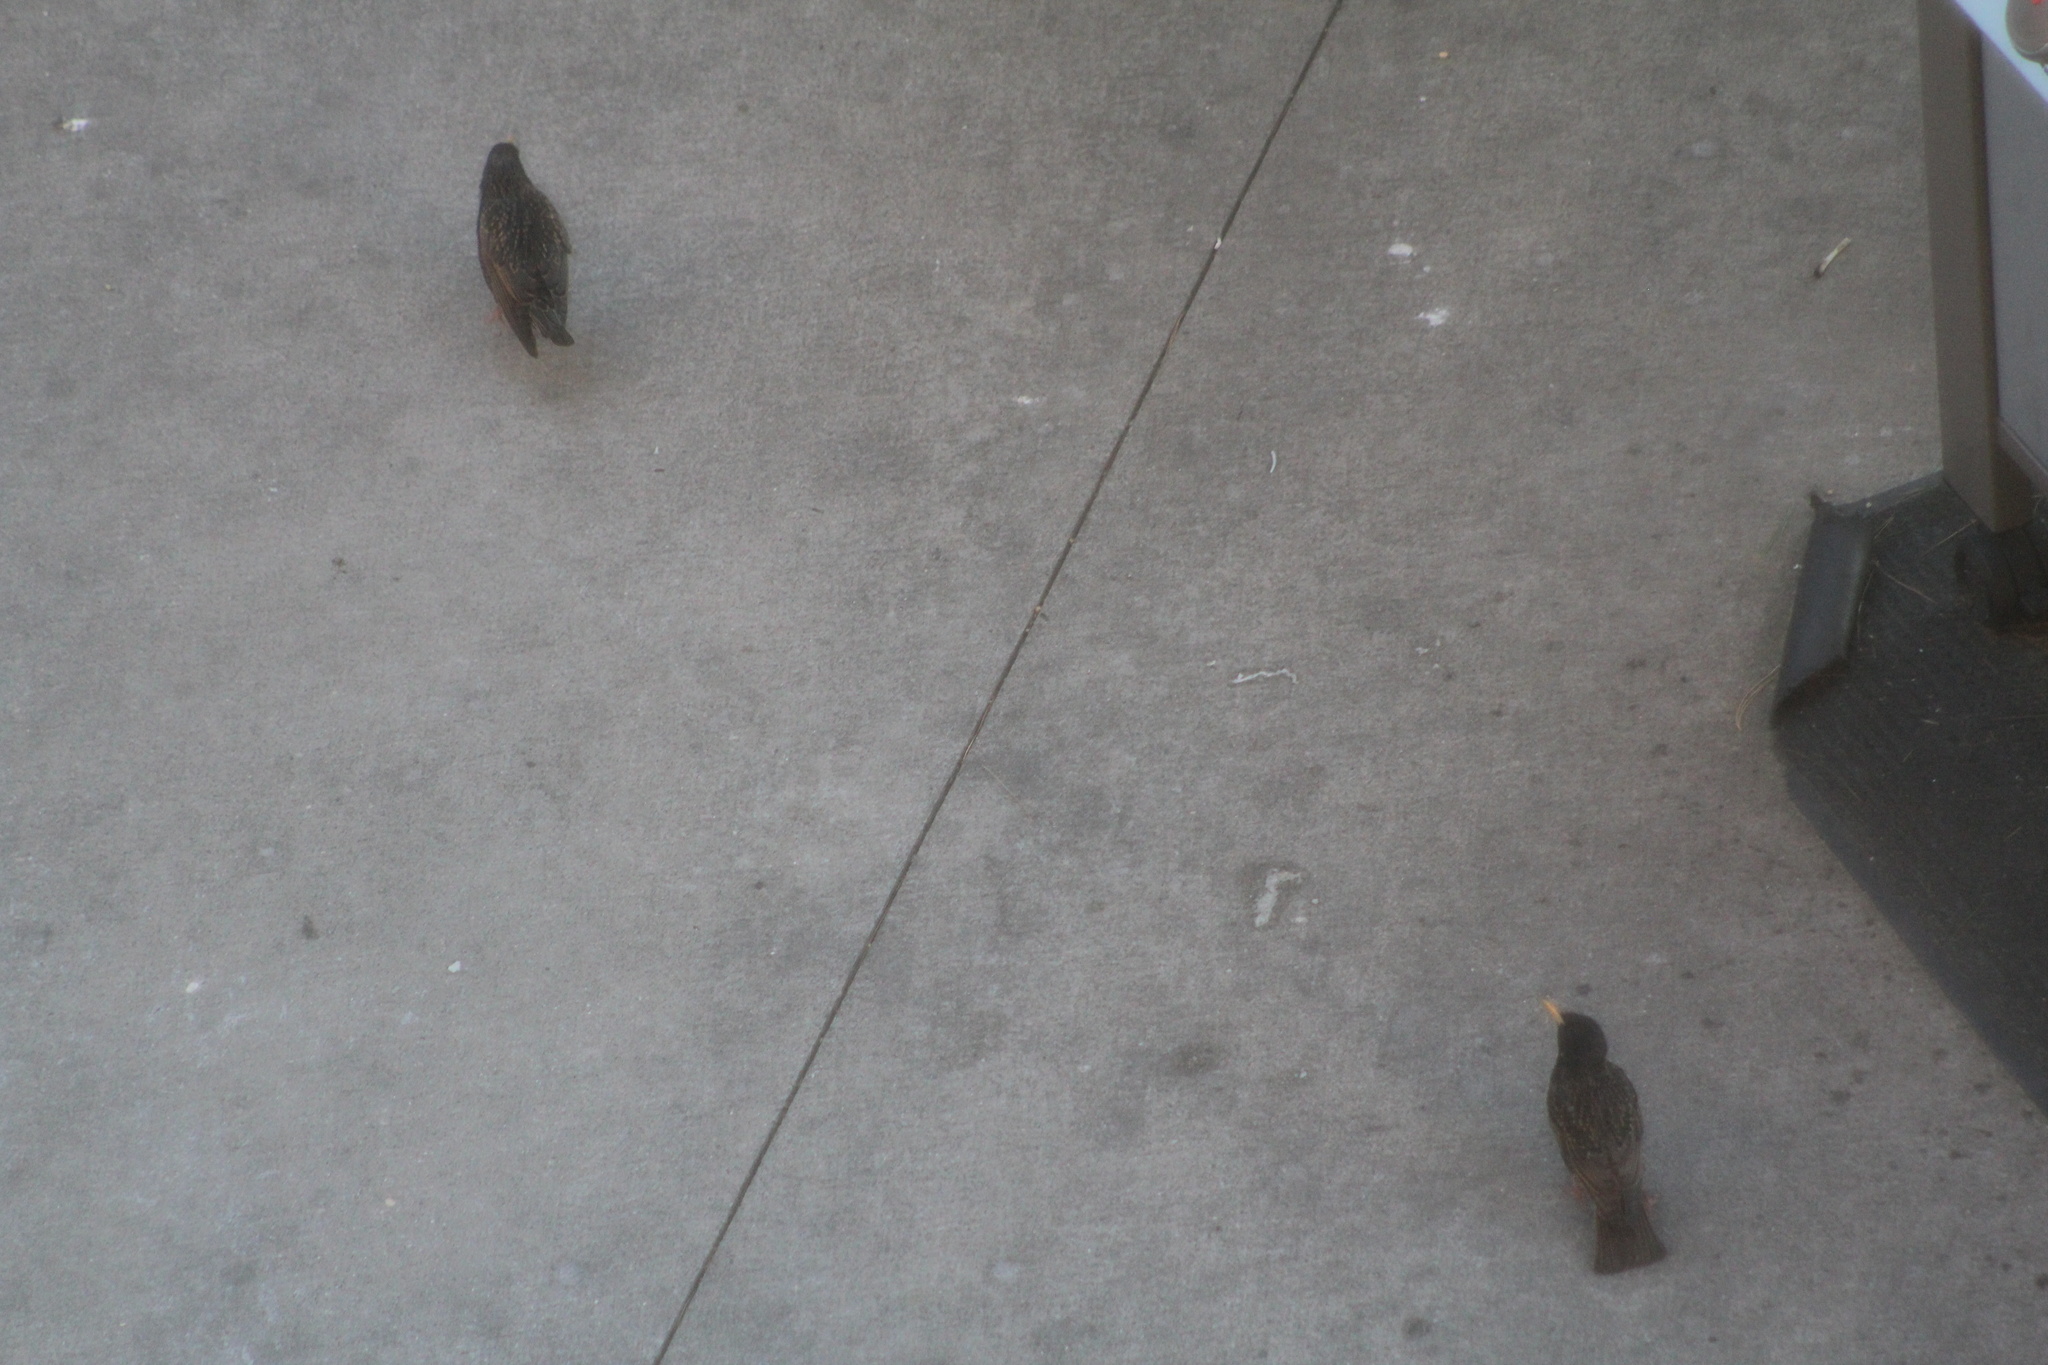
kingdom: Animalia
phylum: Chordata
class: Aves
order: Passeriformes
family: Sturnidae
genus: Sturnus
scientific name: Sturnus vulgaris
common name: Common starling
